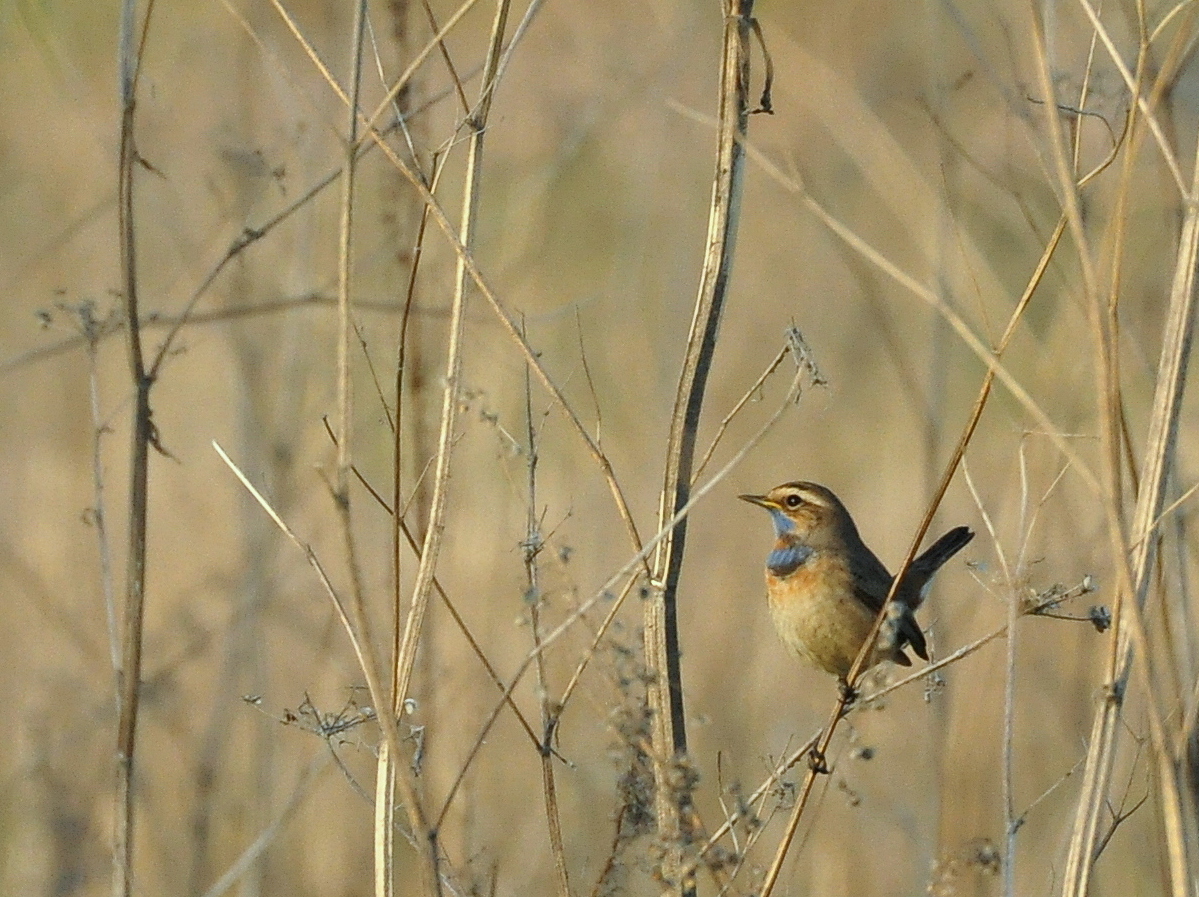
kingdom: Animalia
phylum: Chordata
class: Aves
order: Passeriformes
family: Muscicapidae
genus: Luscinia
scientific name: Luscinia svecica
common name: Bluethroat
